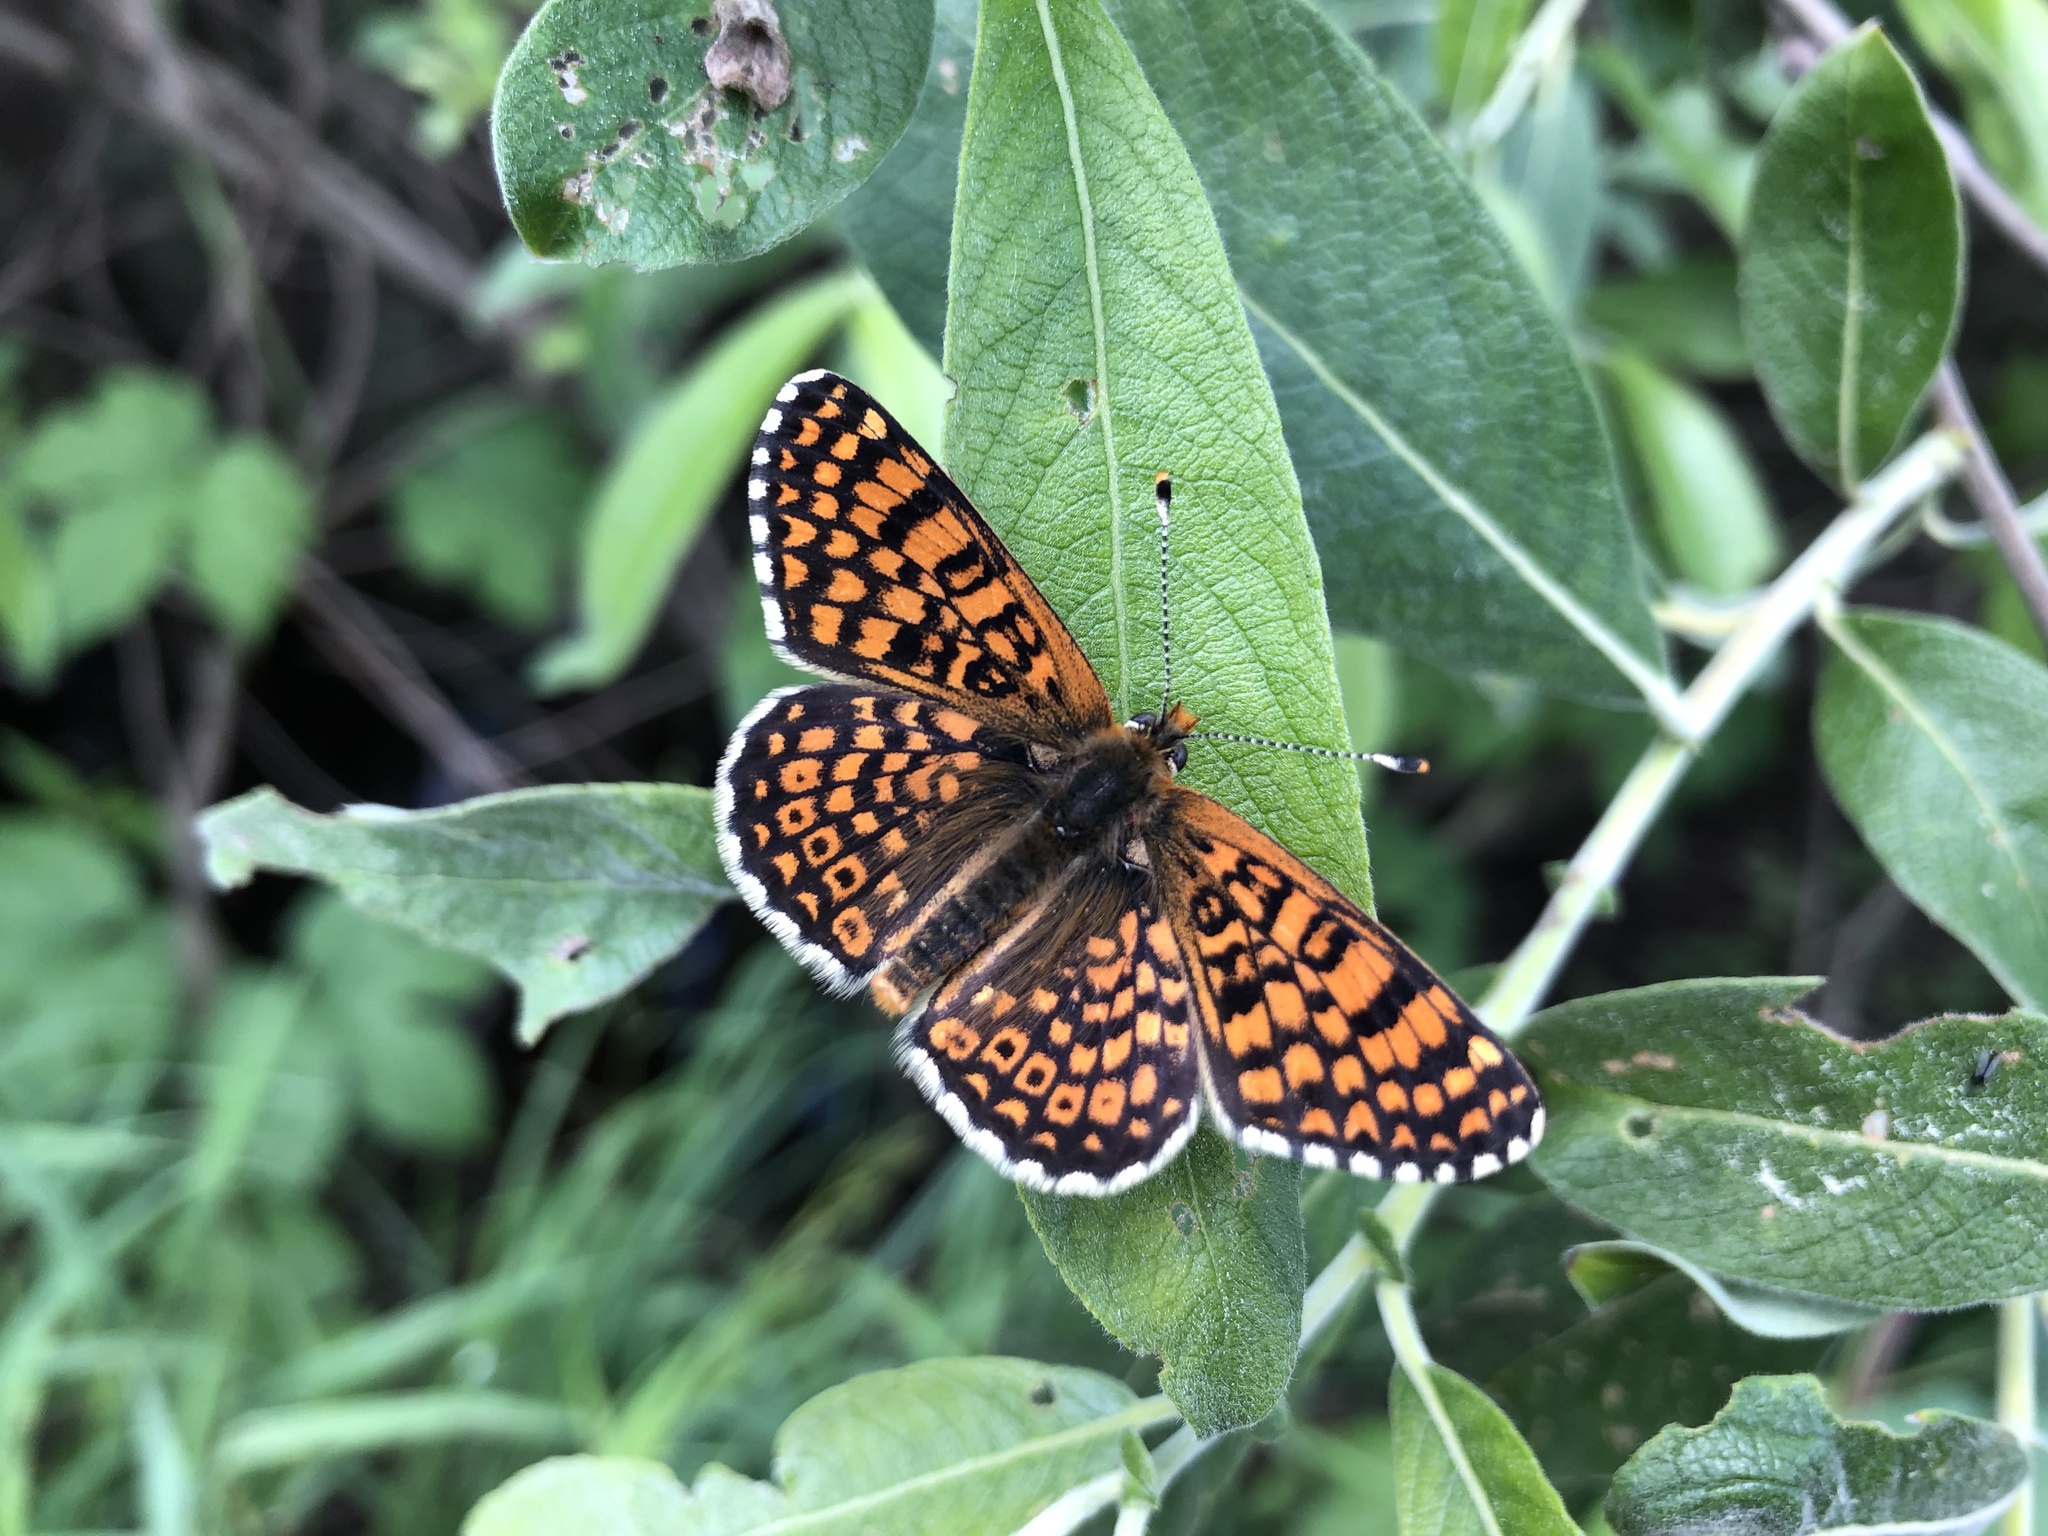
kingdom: Animalia
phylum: Arthropoda
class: Insecta
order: Lepidoptera
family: Nymphalidae
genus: Melitaea
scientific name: Melitaea cinxia
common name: Glanville fritillary
